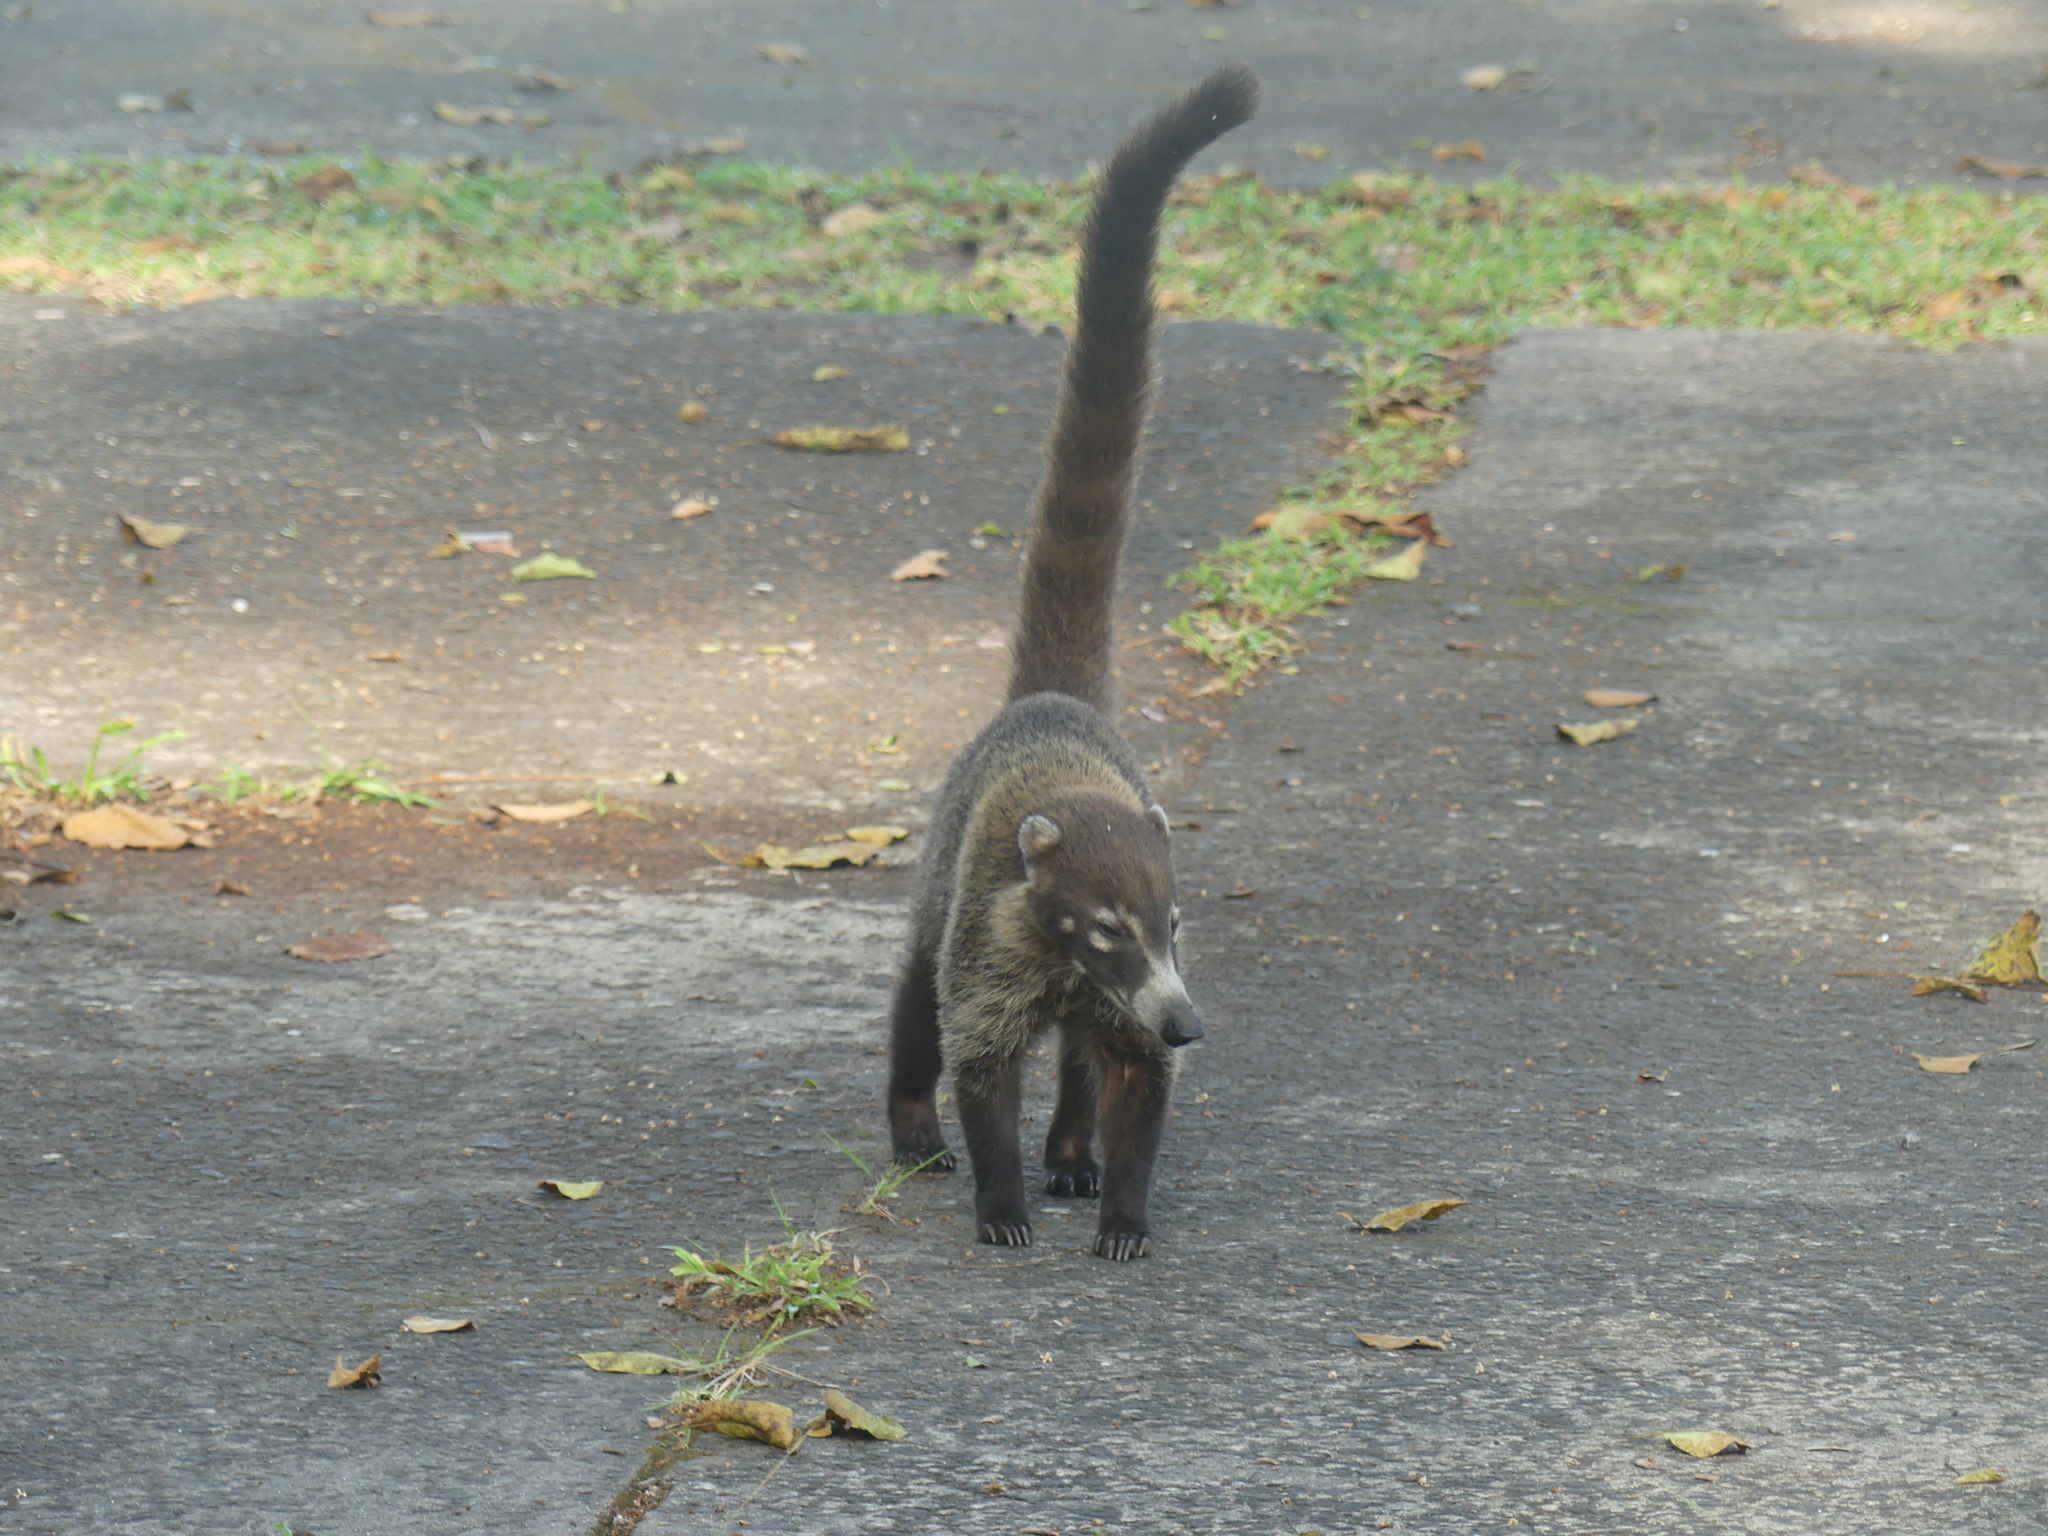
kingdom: Animalia
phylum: Chordata
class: Mammalia
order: Carnivora
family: Procyonidae
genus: Nasua
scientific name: Nasua narica
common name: White-nosed coati
